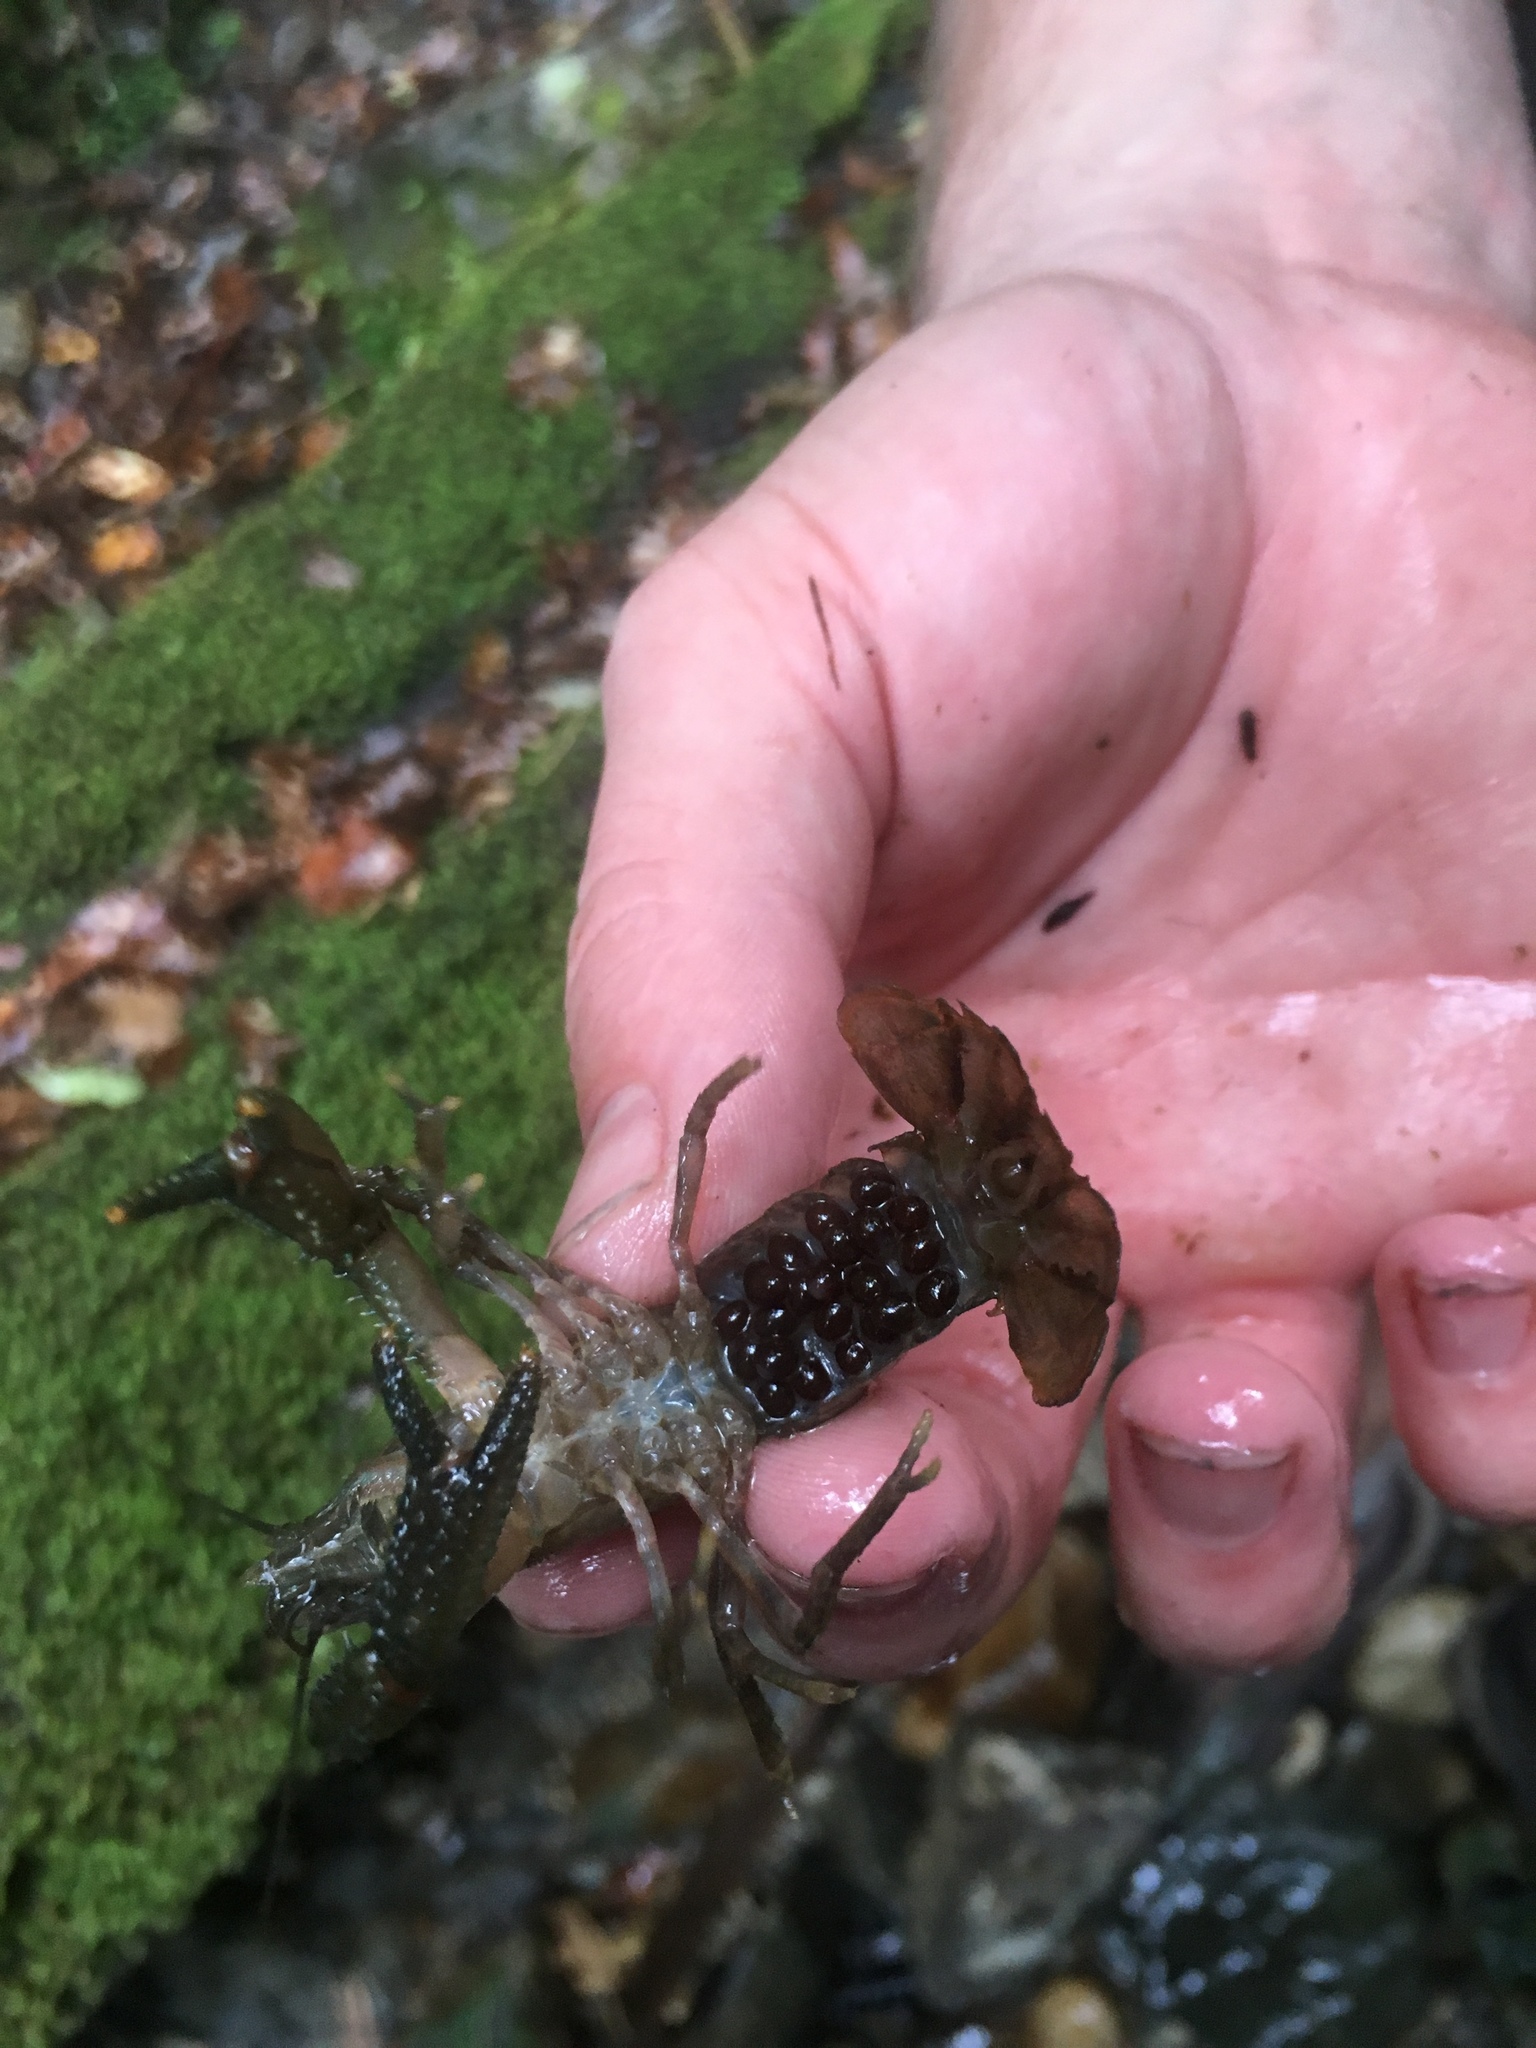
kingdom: Animalia
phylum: Arthropoda
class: Malacostraca
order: Decapoda
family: Parastacidae
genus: Paranephrops
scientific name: Paranephrops planifrons
